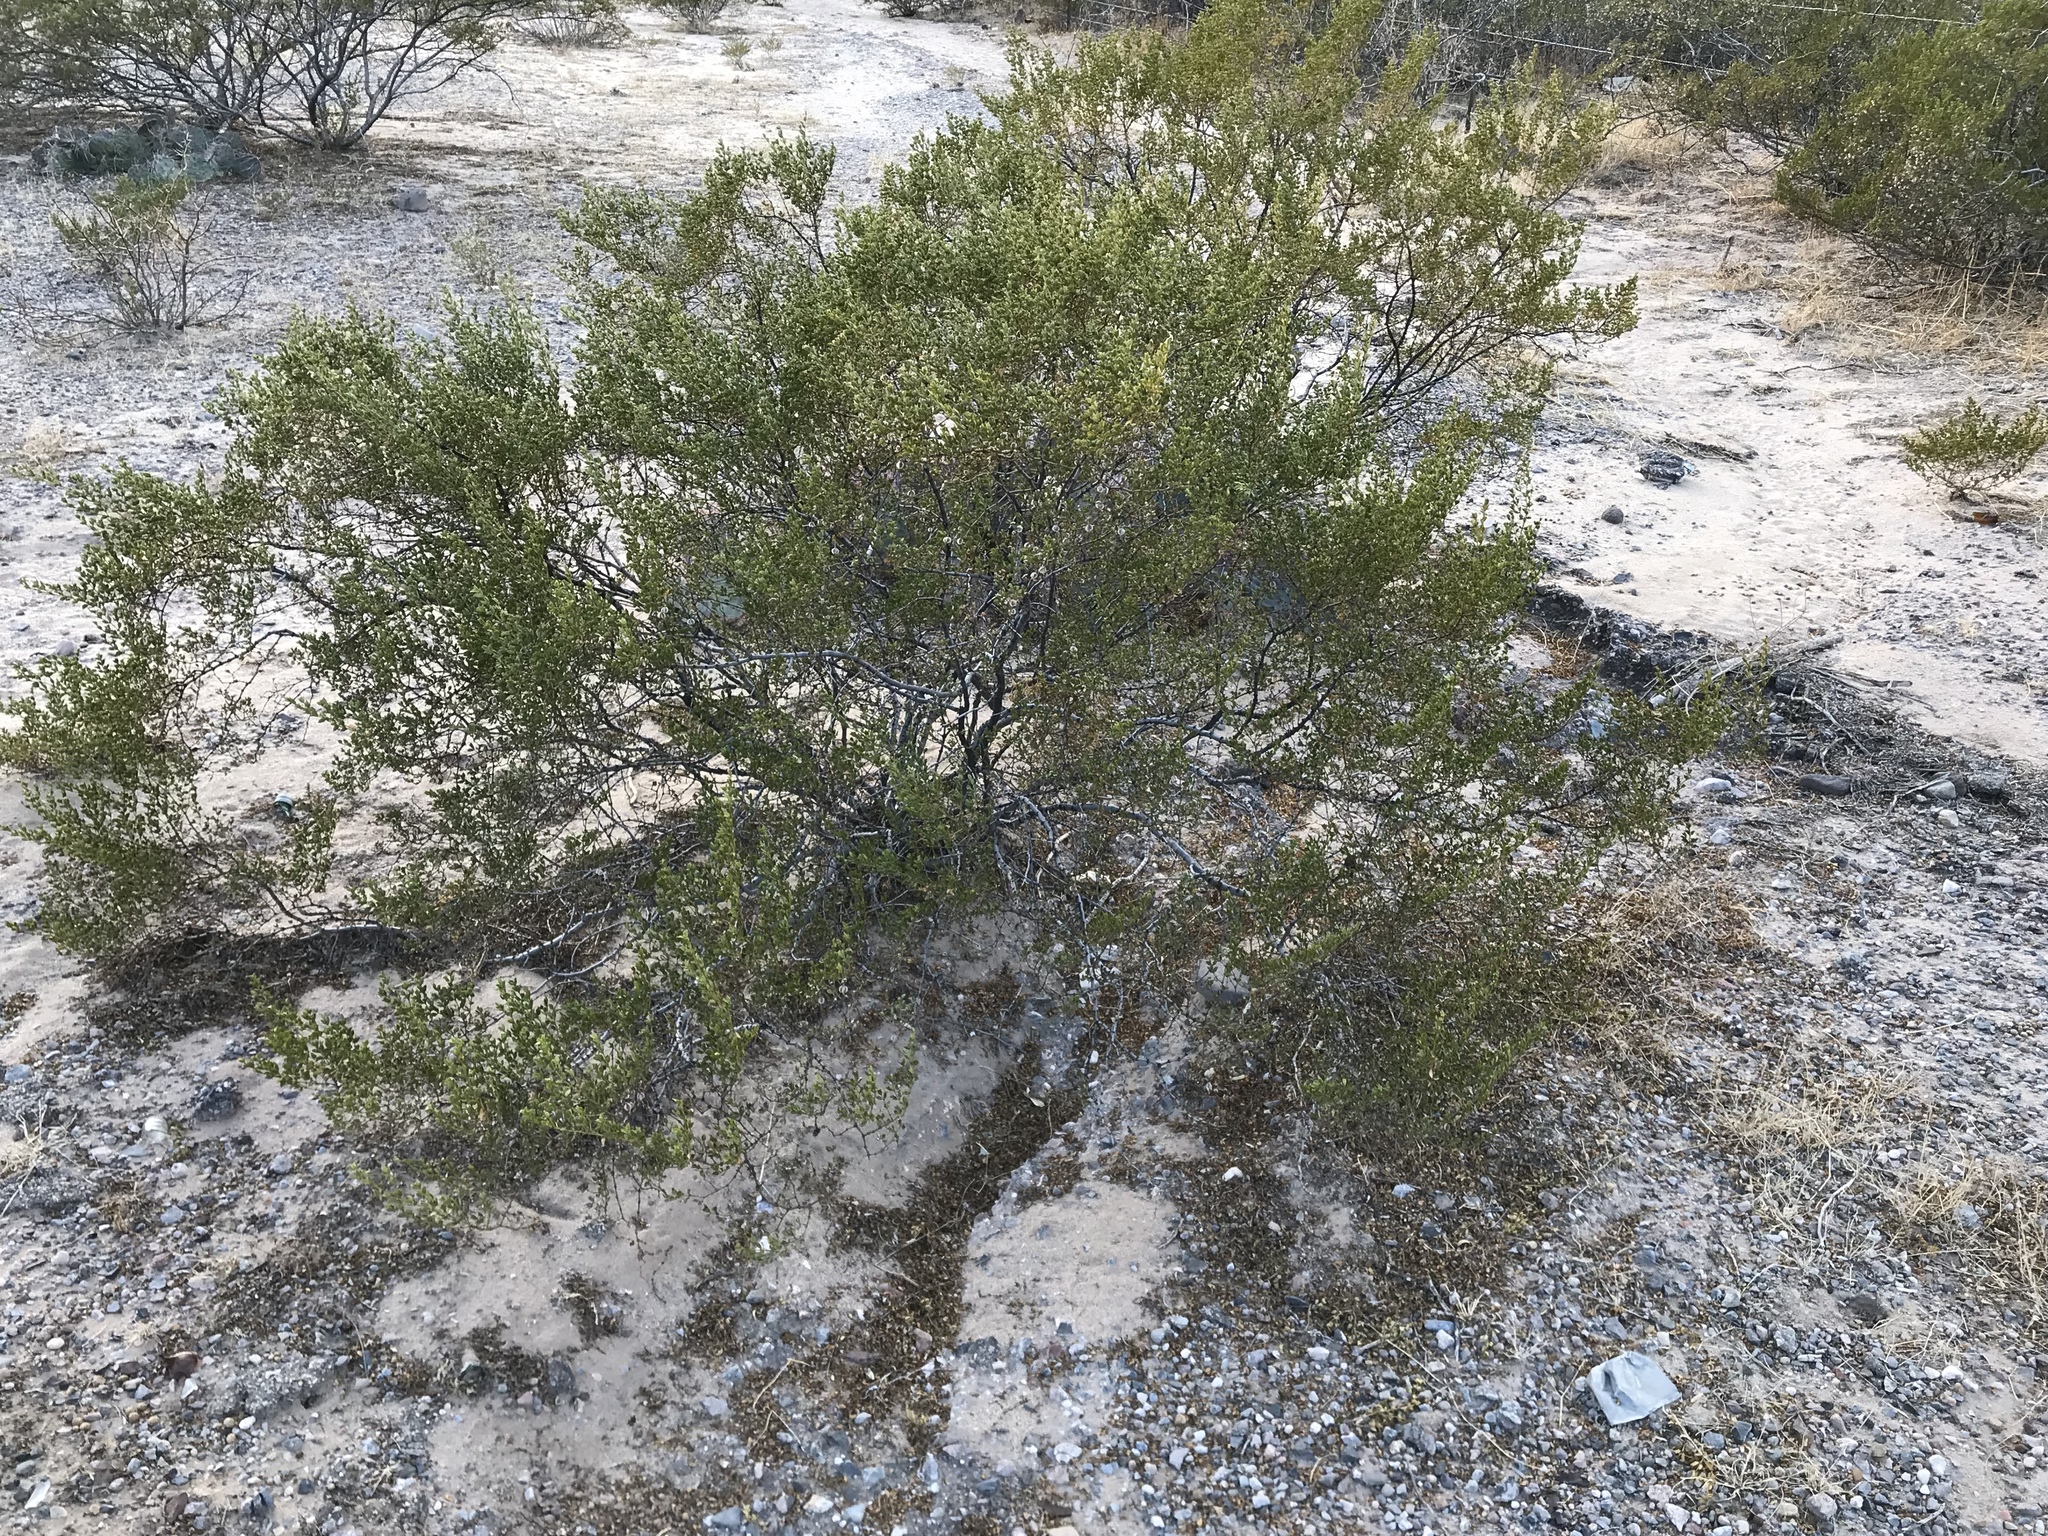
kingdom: Plantae
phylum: Tracheophyta
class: Magnoliopsida
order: Zygophyllales
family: Zygophyllaceae
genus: Larrea
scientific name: Larrea tridentata
